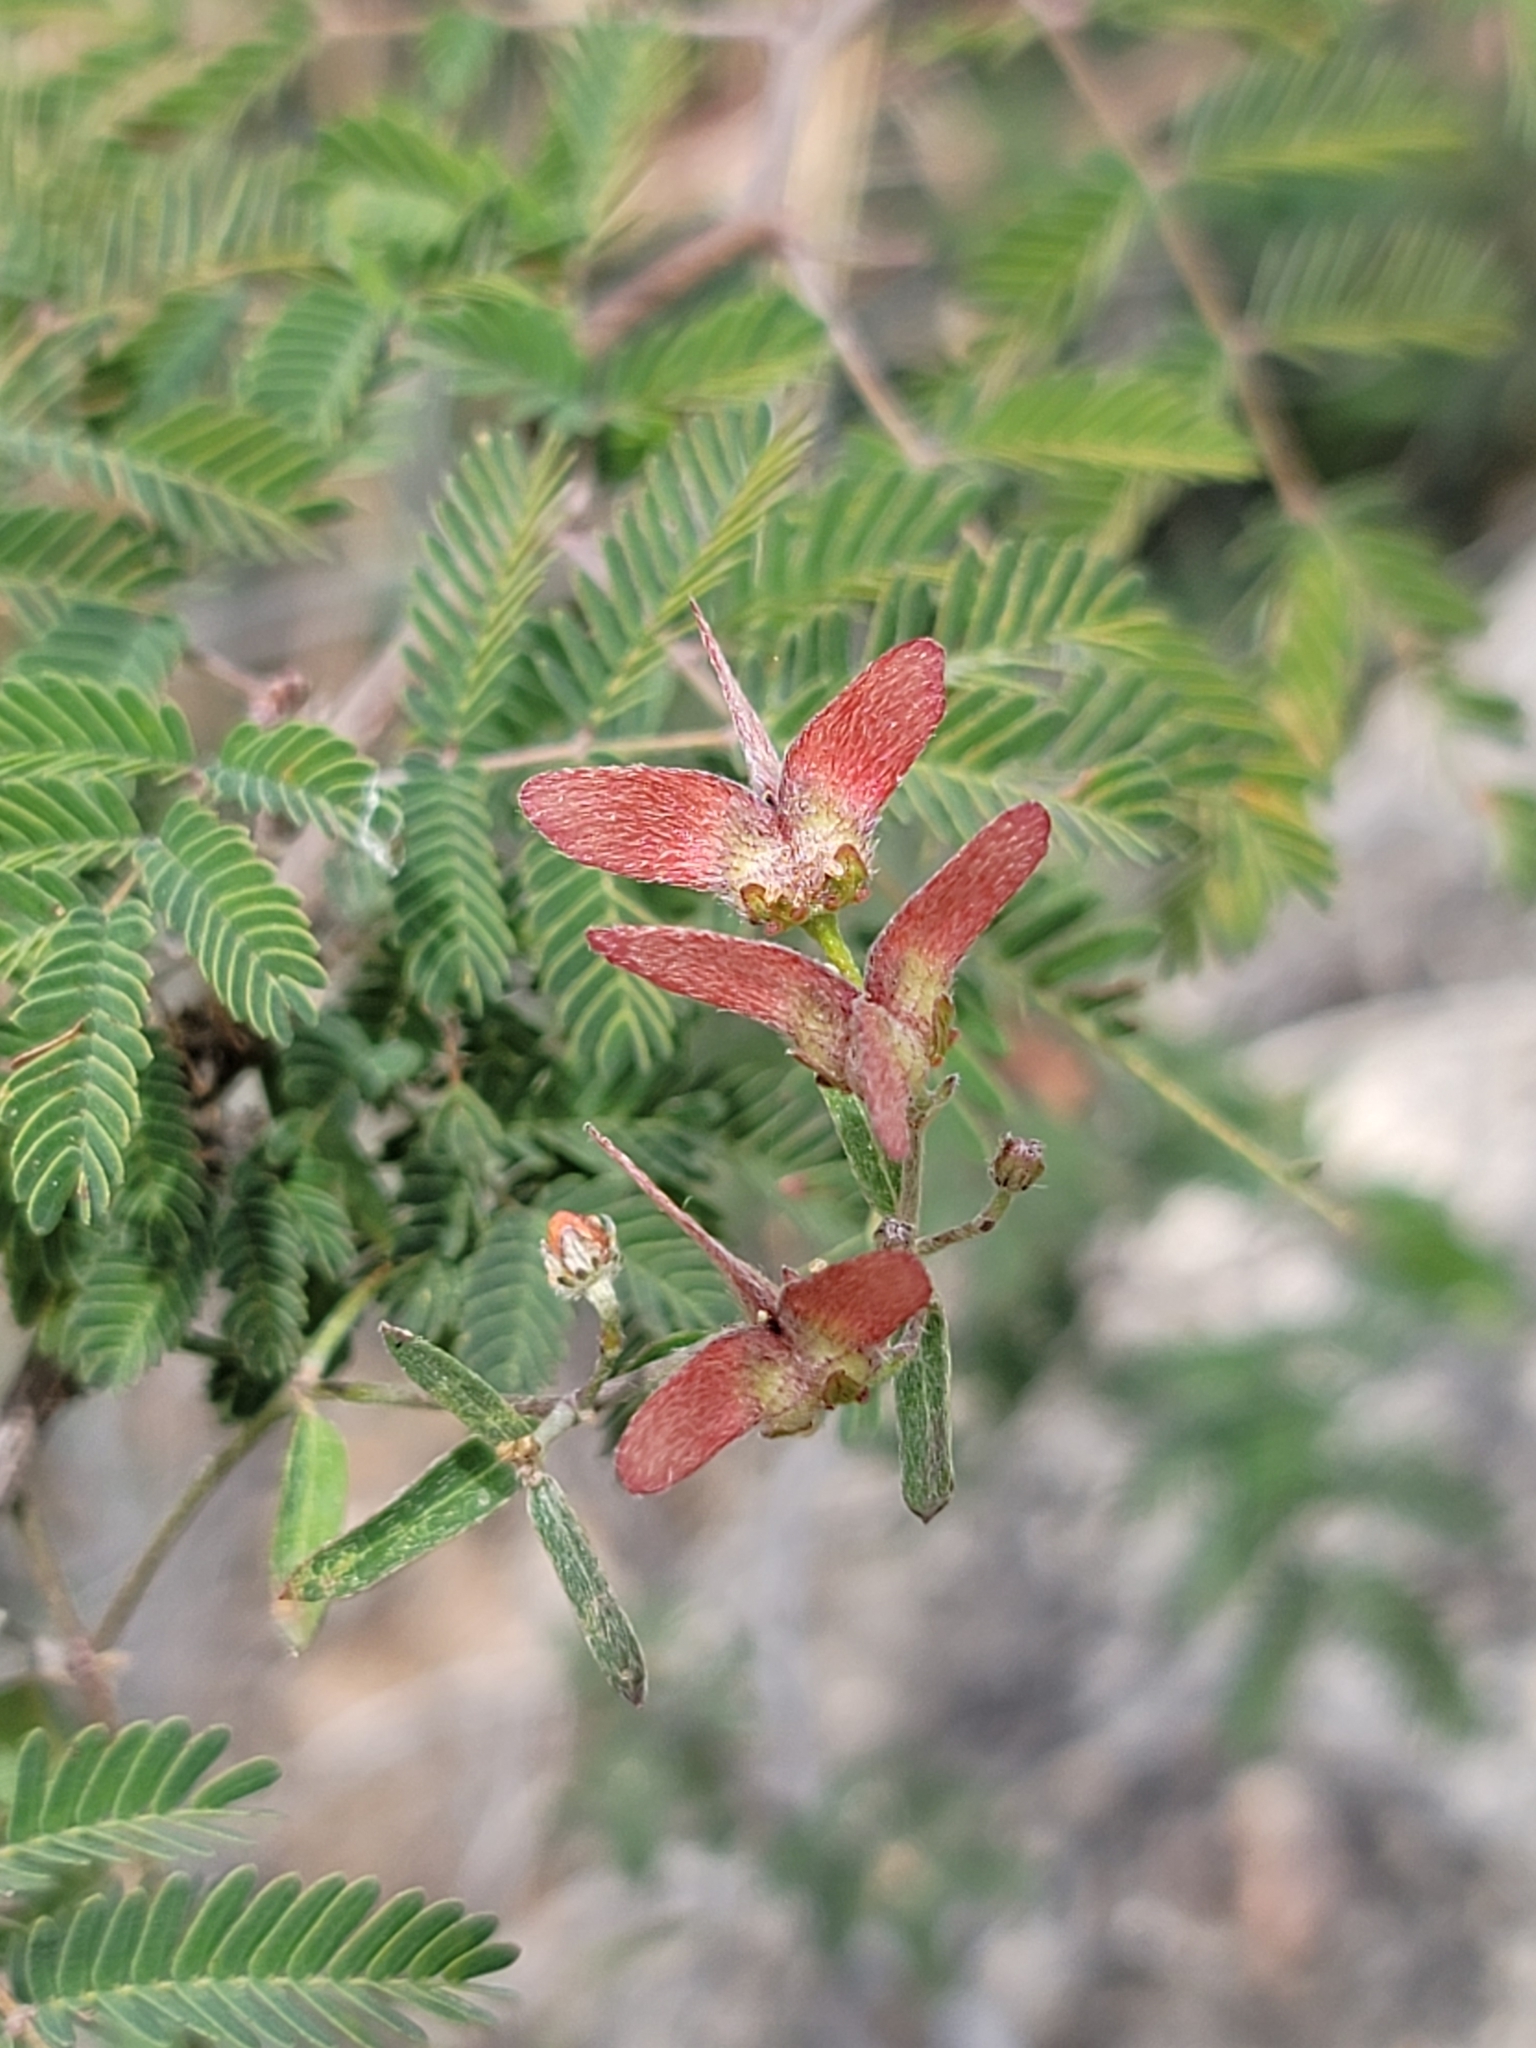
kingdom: Plantae
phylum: Tracheophyta
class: Magnoliopsida
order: Malpighiales
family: Malpighiaceae
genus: Cottsia
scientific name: Cottsia gracilis
